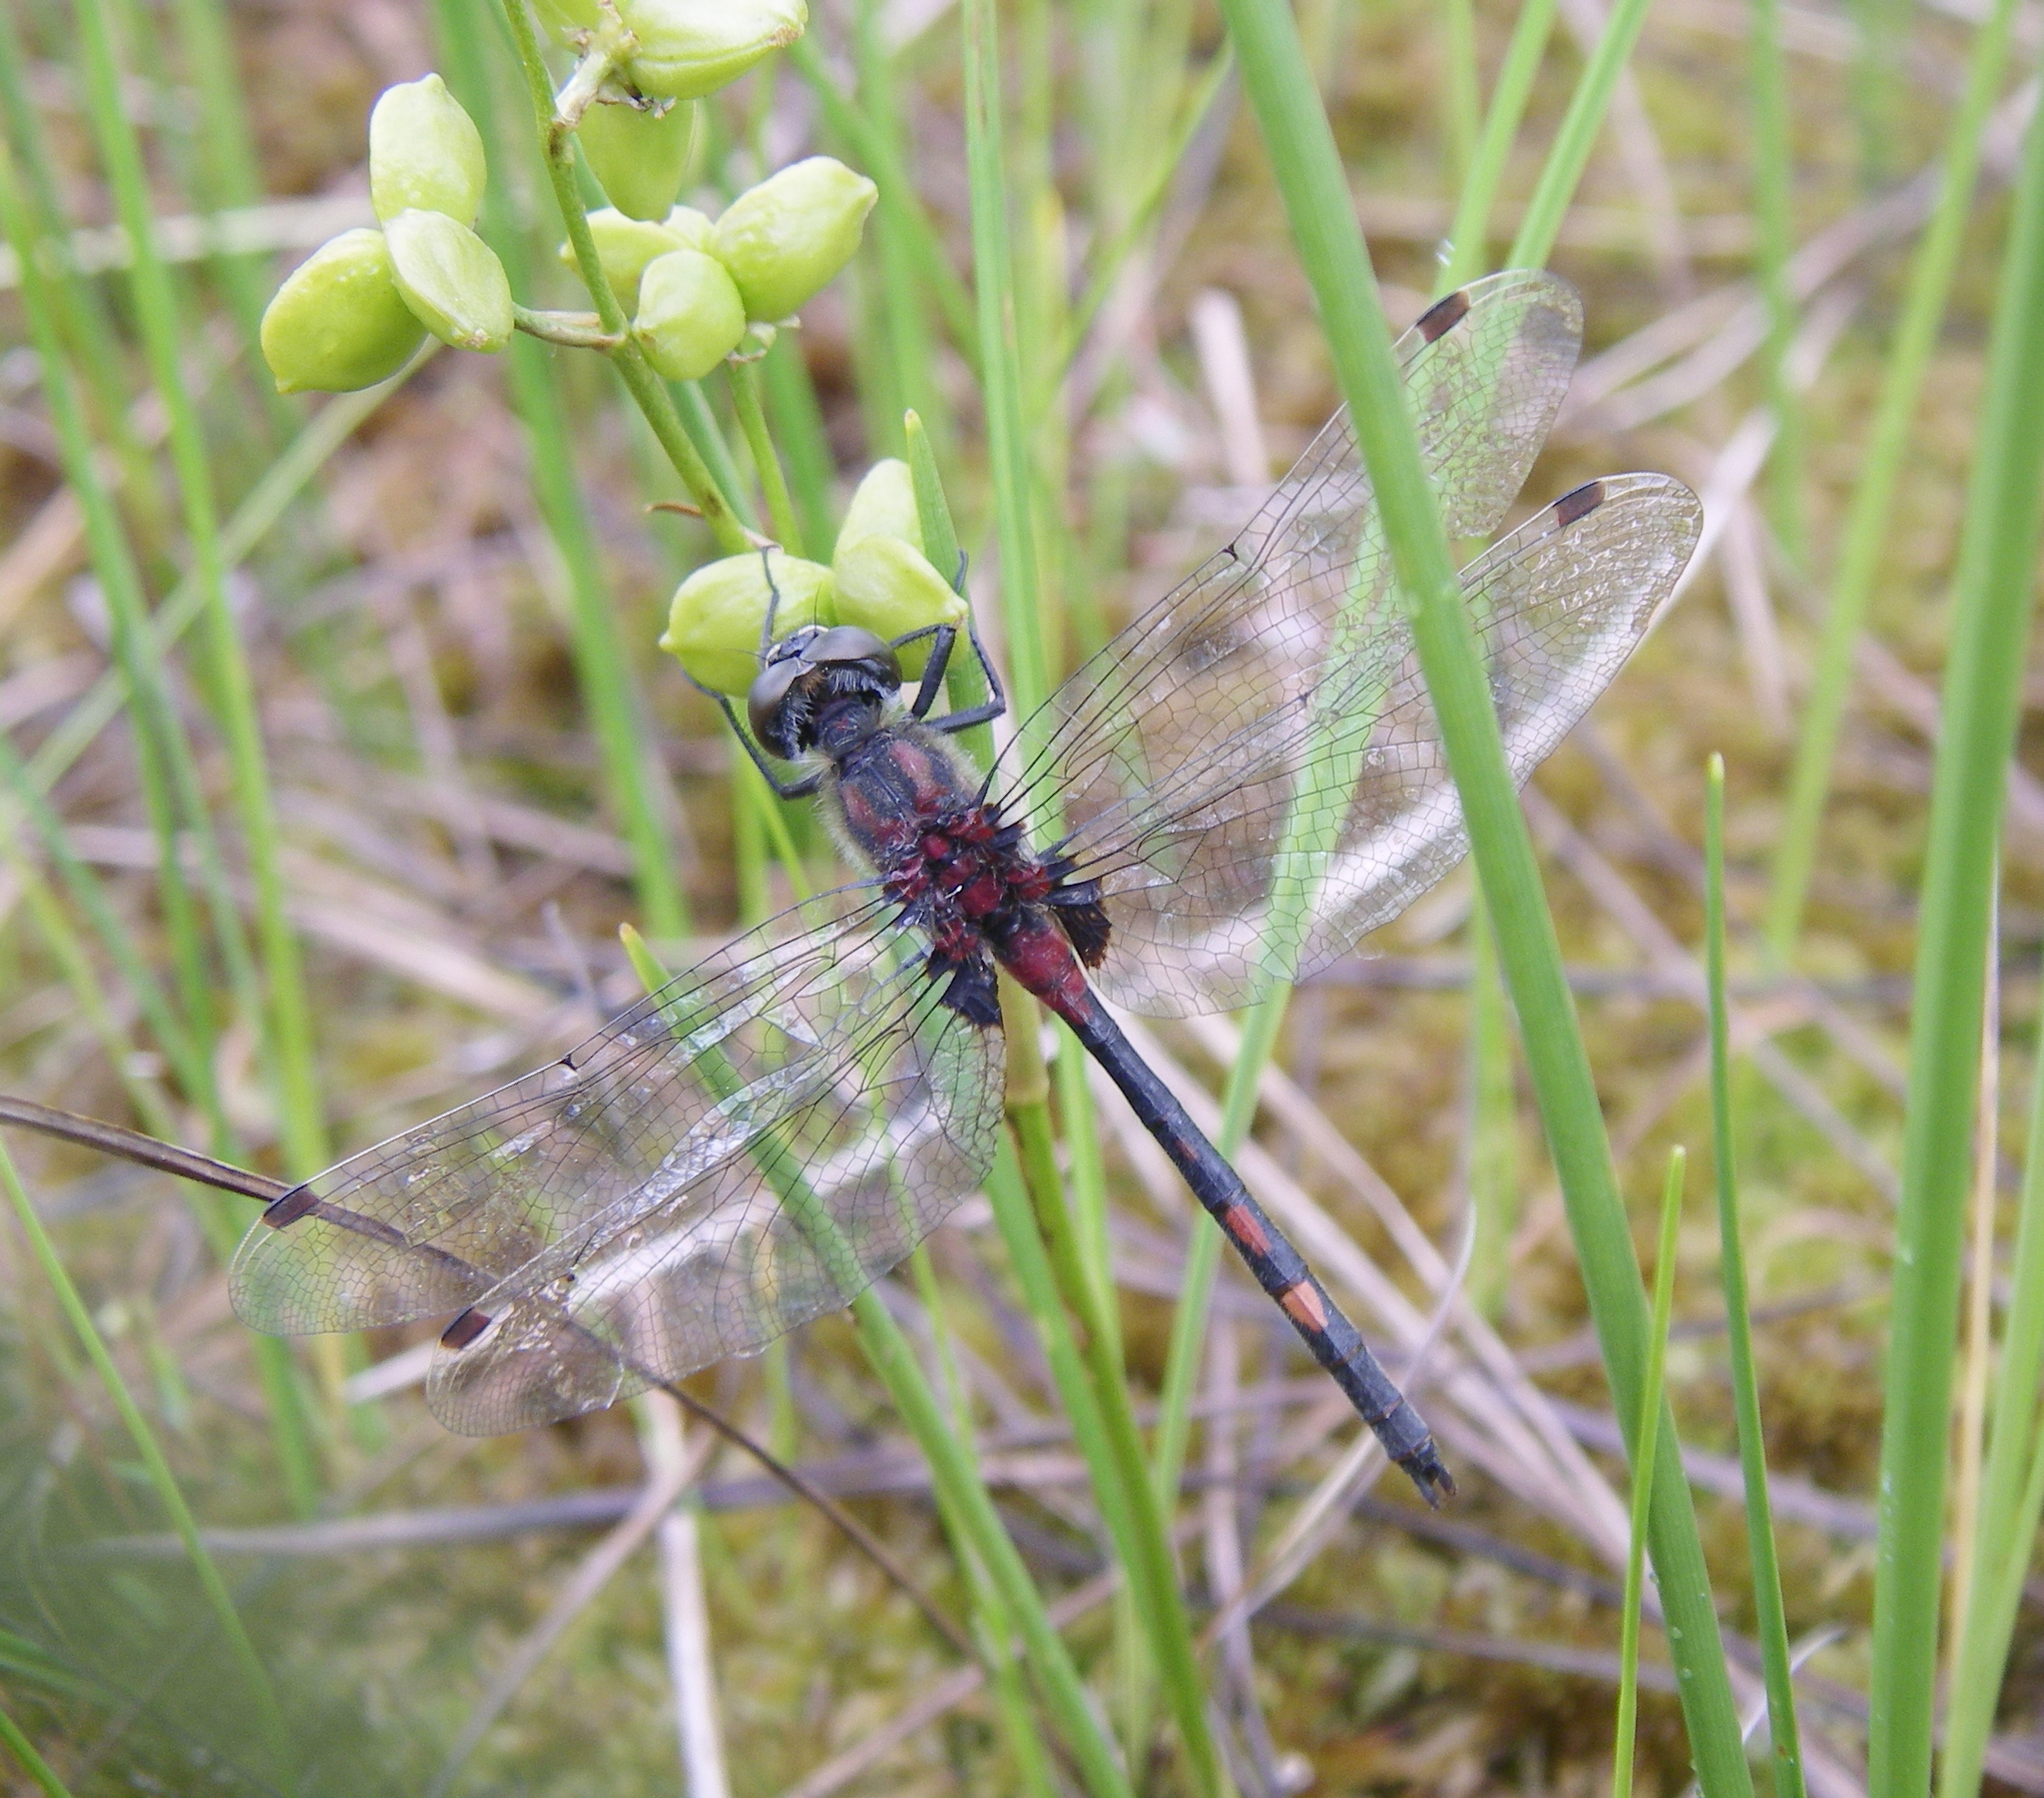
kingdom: Animalia
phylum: Arthropoda
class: Insecta
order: Odonata
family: Libellulidae
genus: Leucorrhinia
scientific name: Leucorrhinia dubia
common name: White-faced darter
